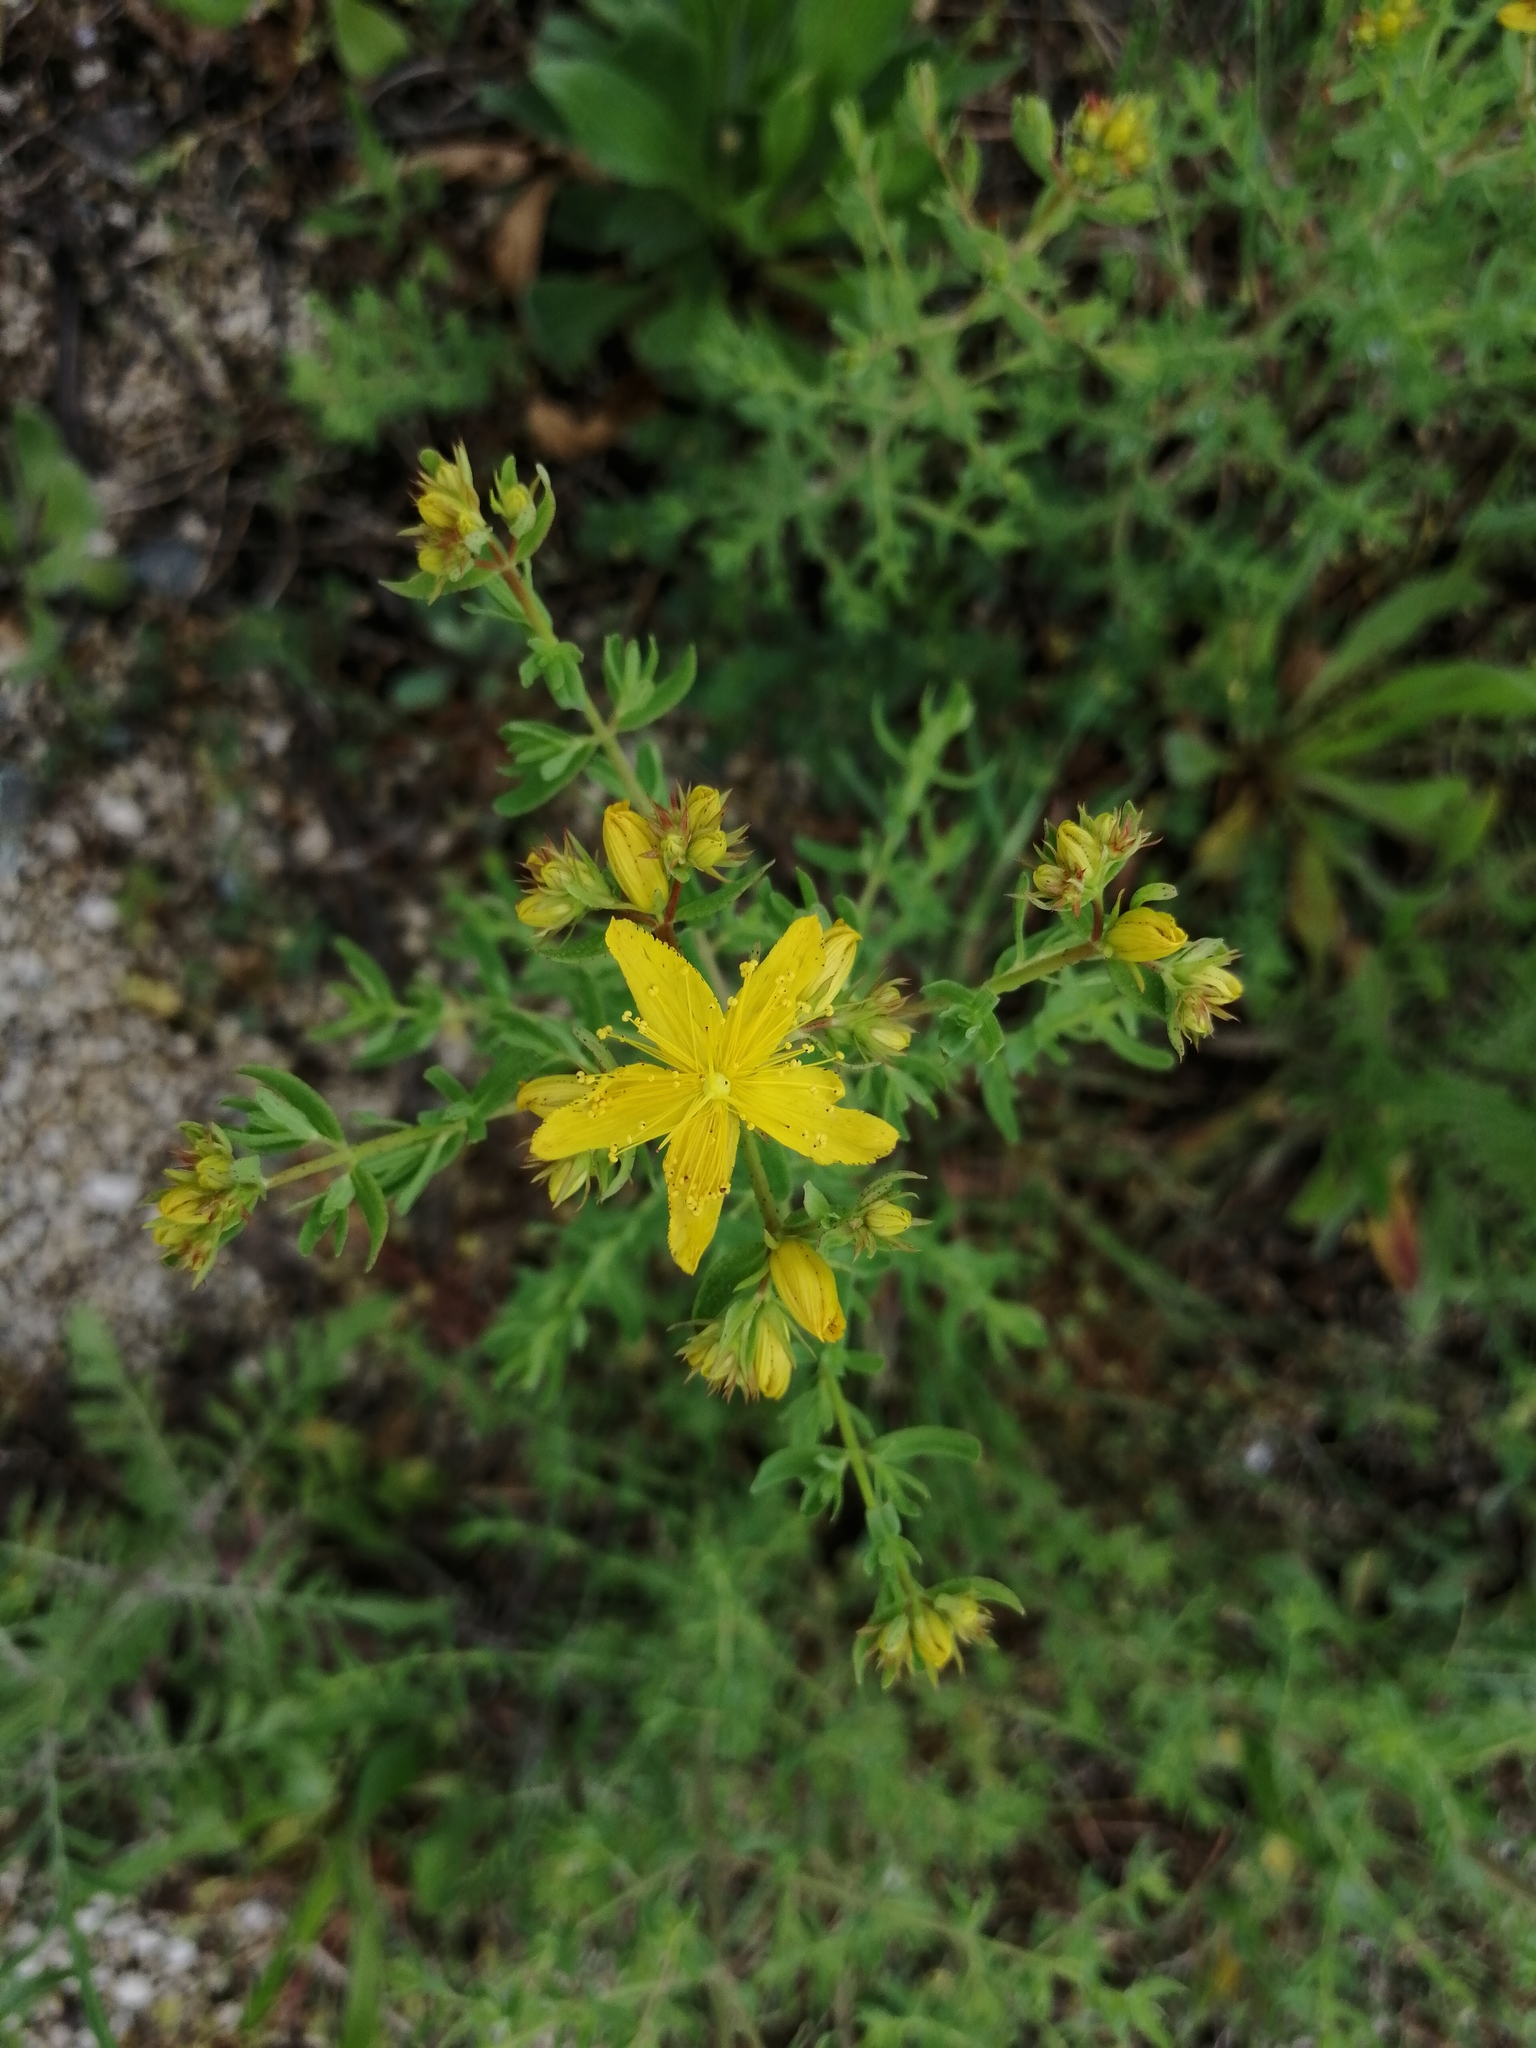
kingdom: Plantae
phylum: Tracheophyta
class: Magnoliopsida
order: Malpighiales
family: Hypericaceae
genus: Hypericum
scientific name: Hypericum perforatum
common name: Common st. johnswort
